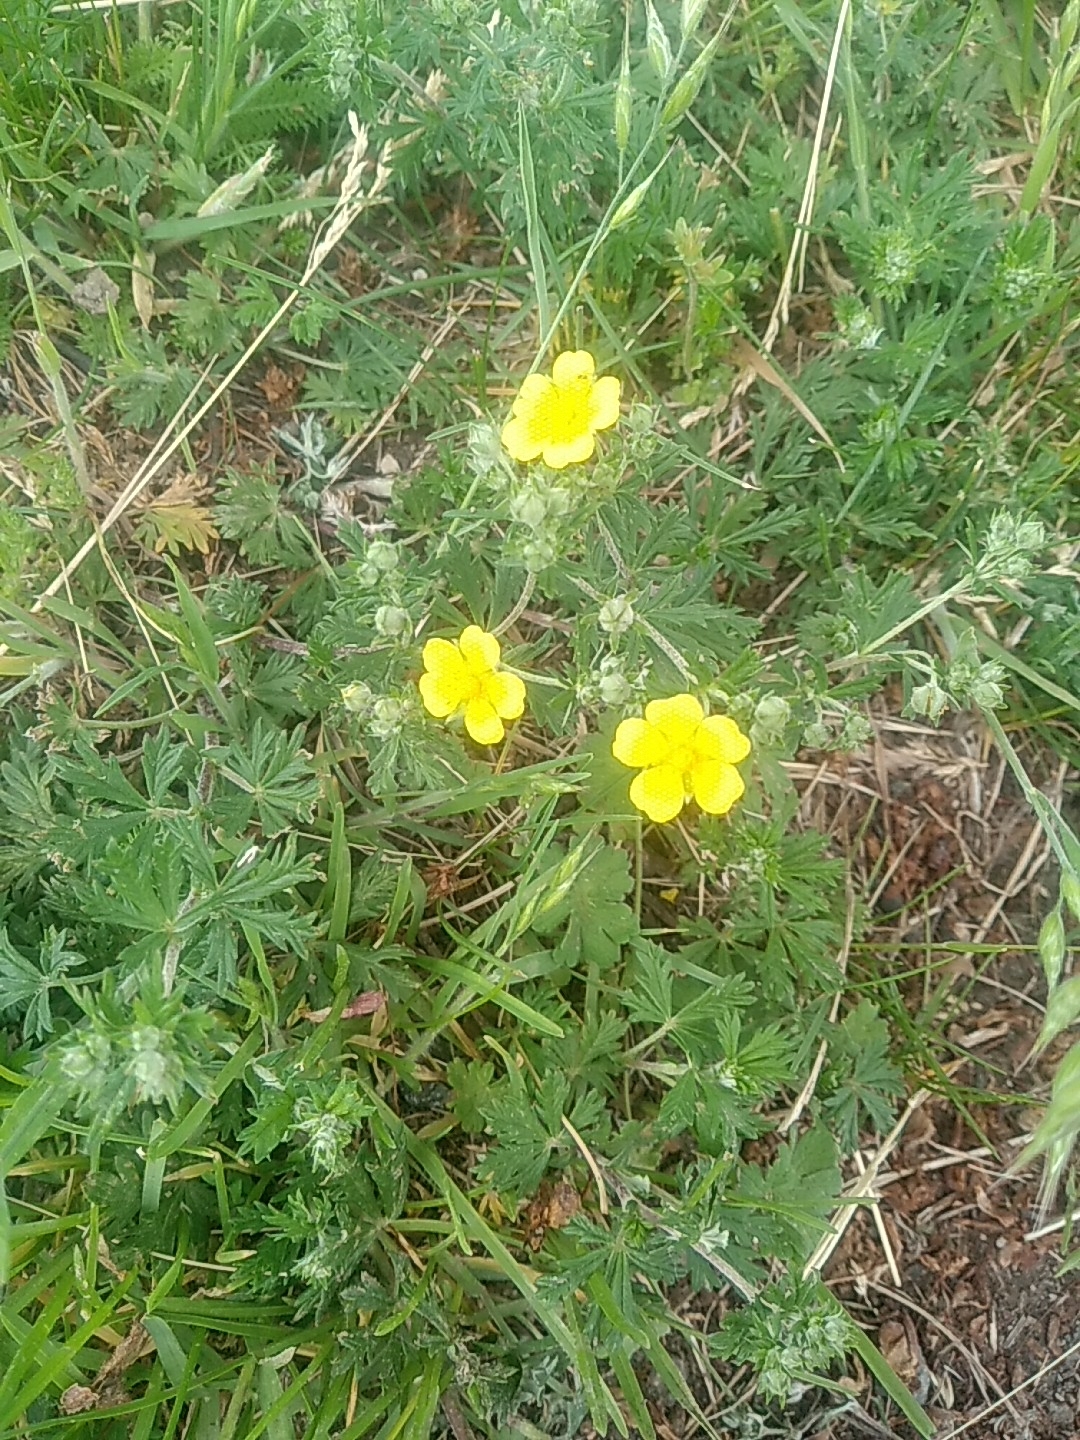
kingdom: Plantae
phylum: Tracheophyta
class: Magnoliopsida
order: Rosales
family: Rosaceae
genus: Potentilla
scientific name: Potentilla argentea
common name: Hoary cinquefoil
